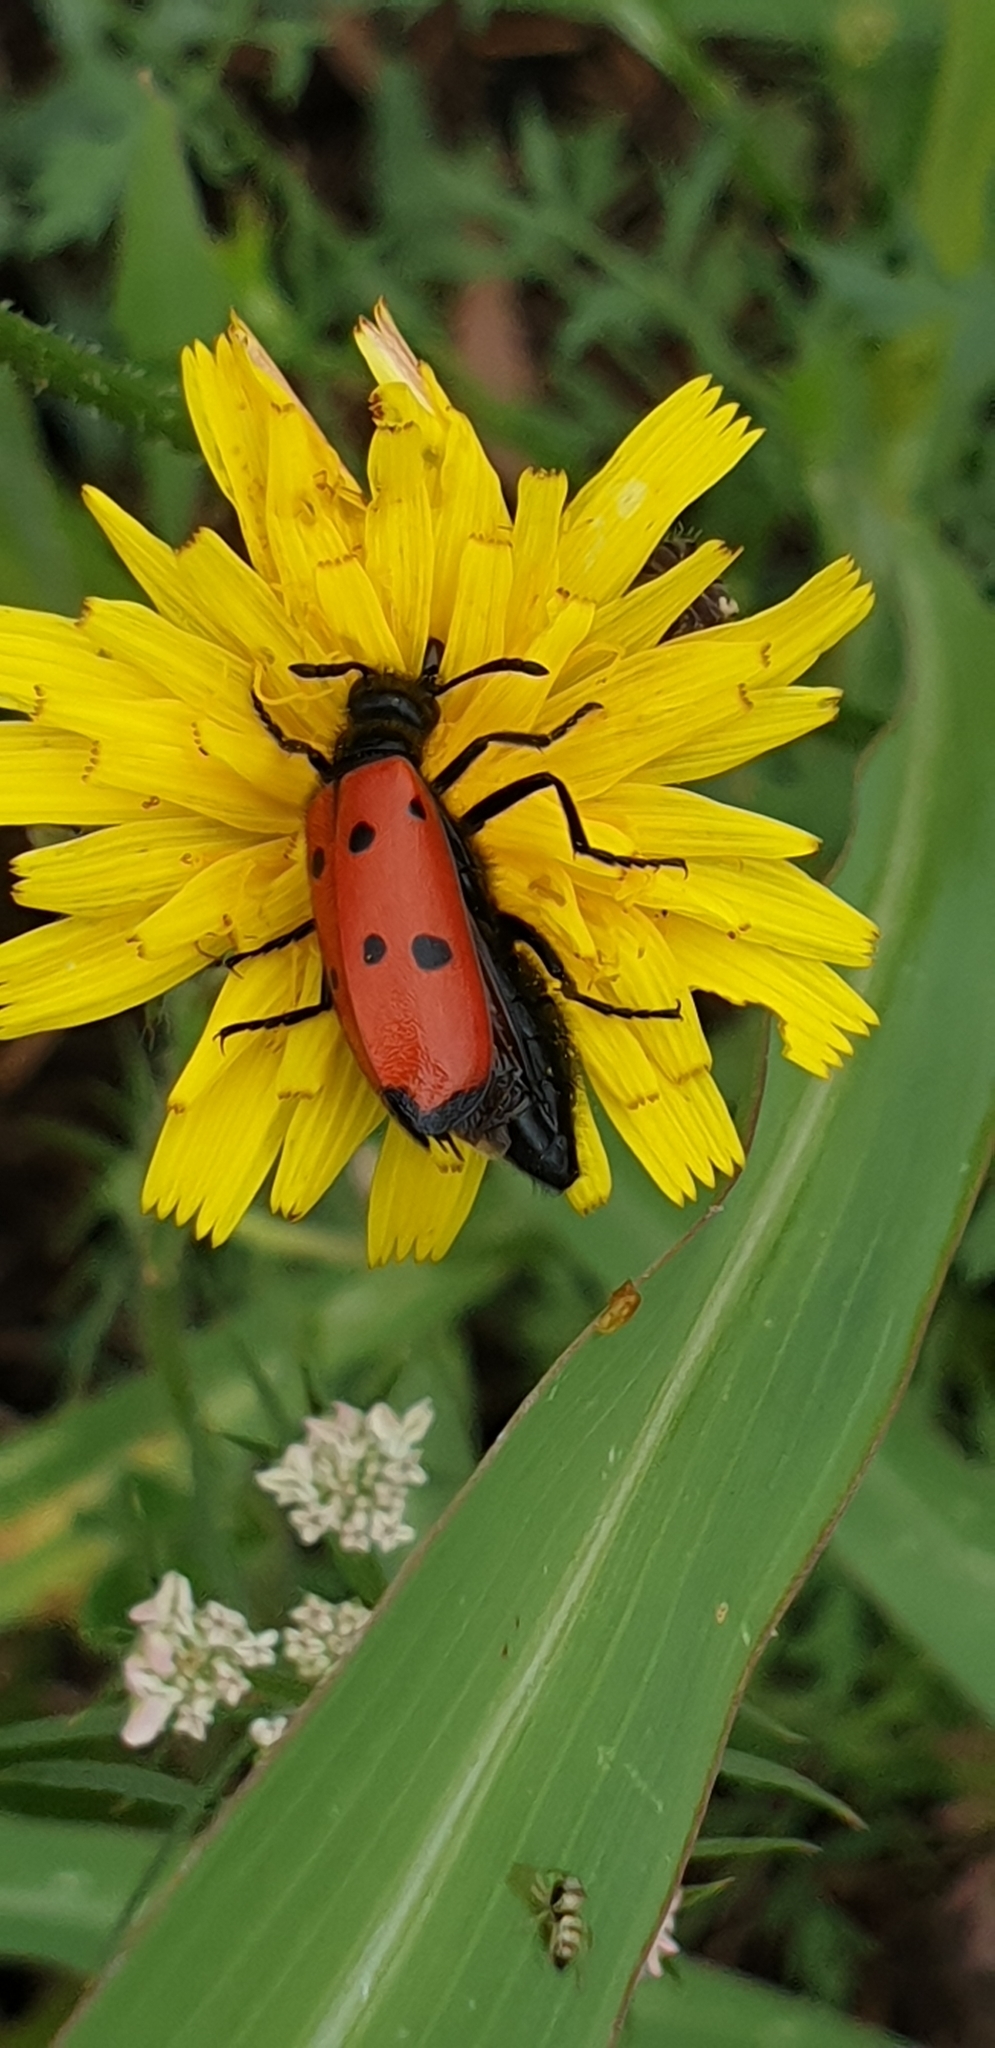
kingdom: Animalia
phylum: Arthropoda
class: Insecta
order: Coleoptera
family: Meloidae
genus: Mylabris
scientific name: Mylabris quadripunctata
